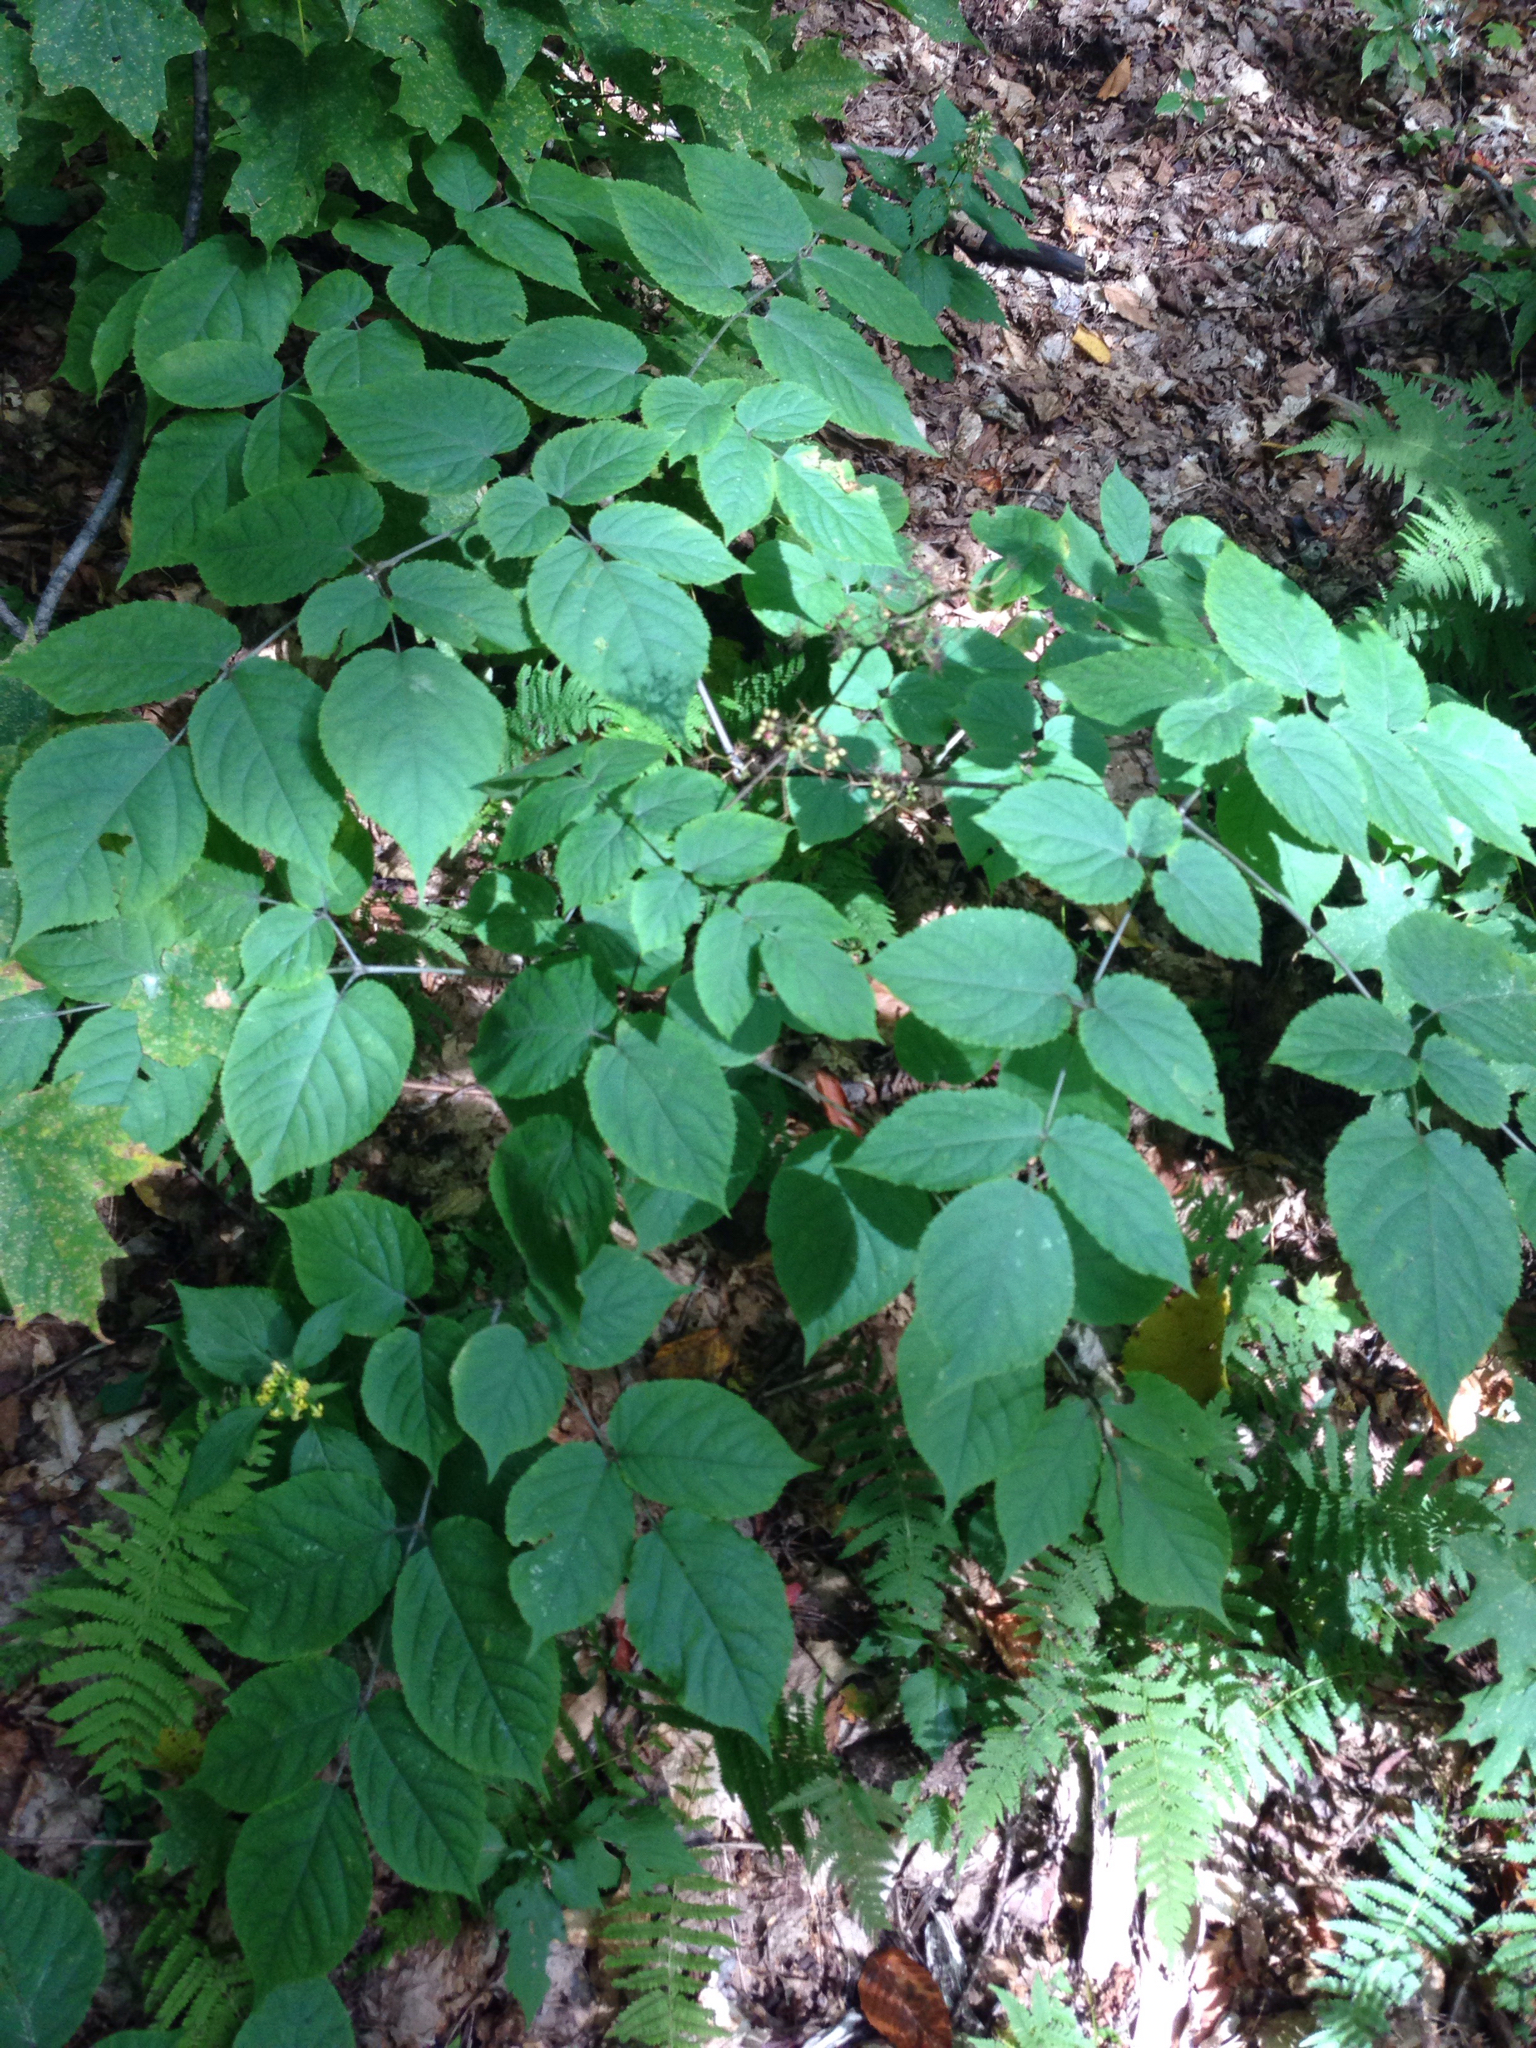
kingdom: Plantae
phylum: Tracheophyta
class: Magnoliopsida
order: Apiales
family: Araliaceae
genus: Aralia
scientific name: Aralia racemosa
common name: American-spikenard
